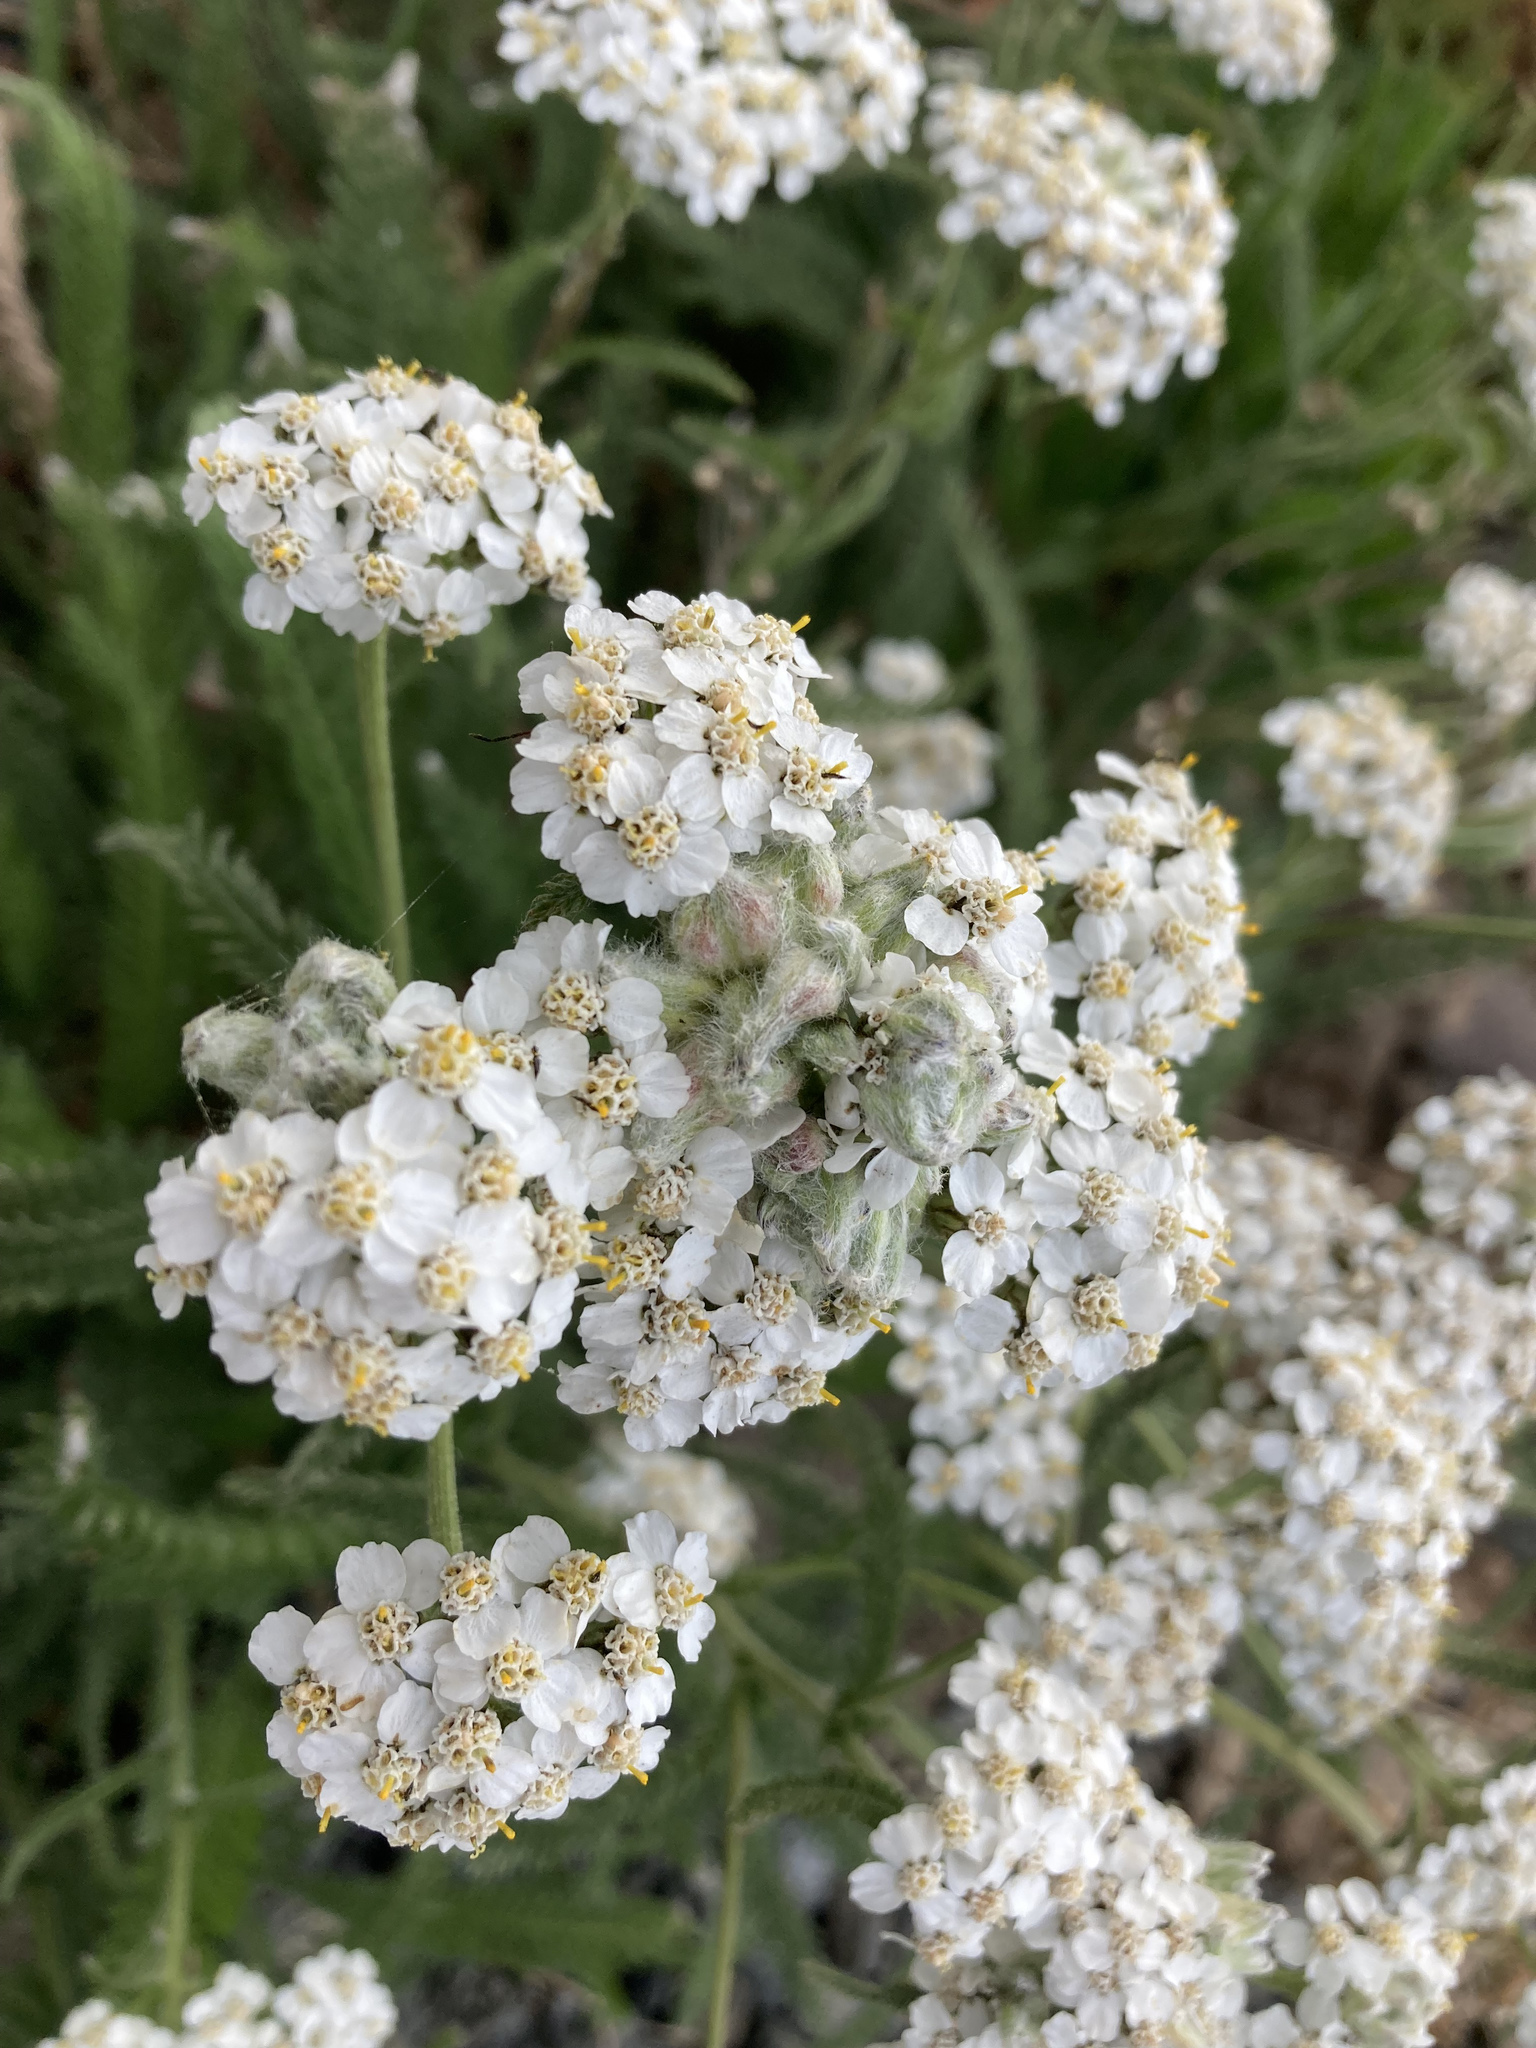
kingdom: Plantae
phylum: Tracheophyta
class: Magnoliopsida
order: Asterales
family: Asteraceae
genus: Achillea
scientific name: Achillea millefolium
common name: Yarrow
